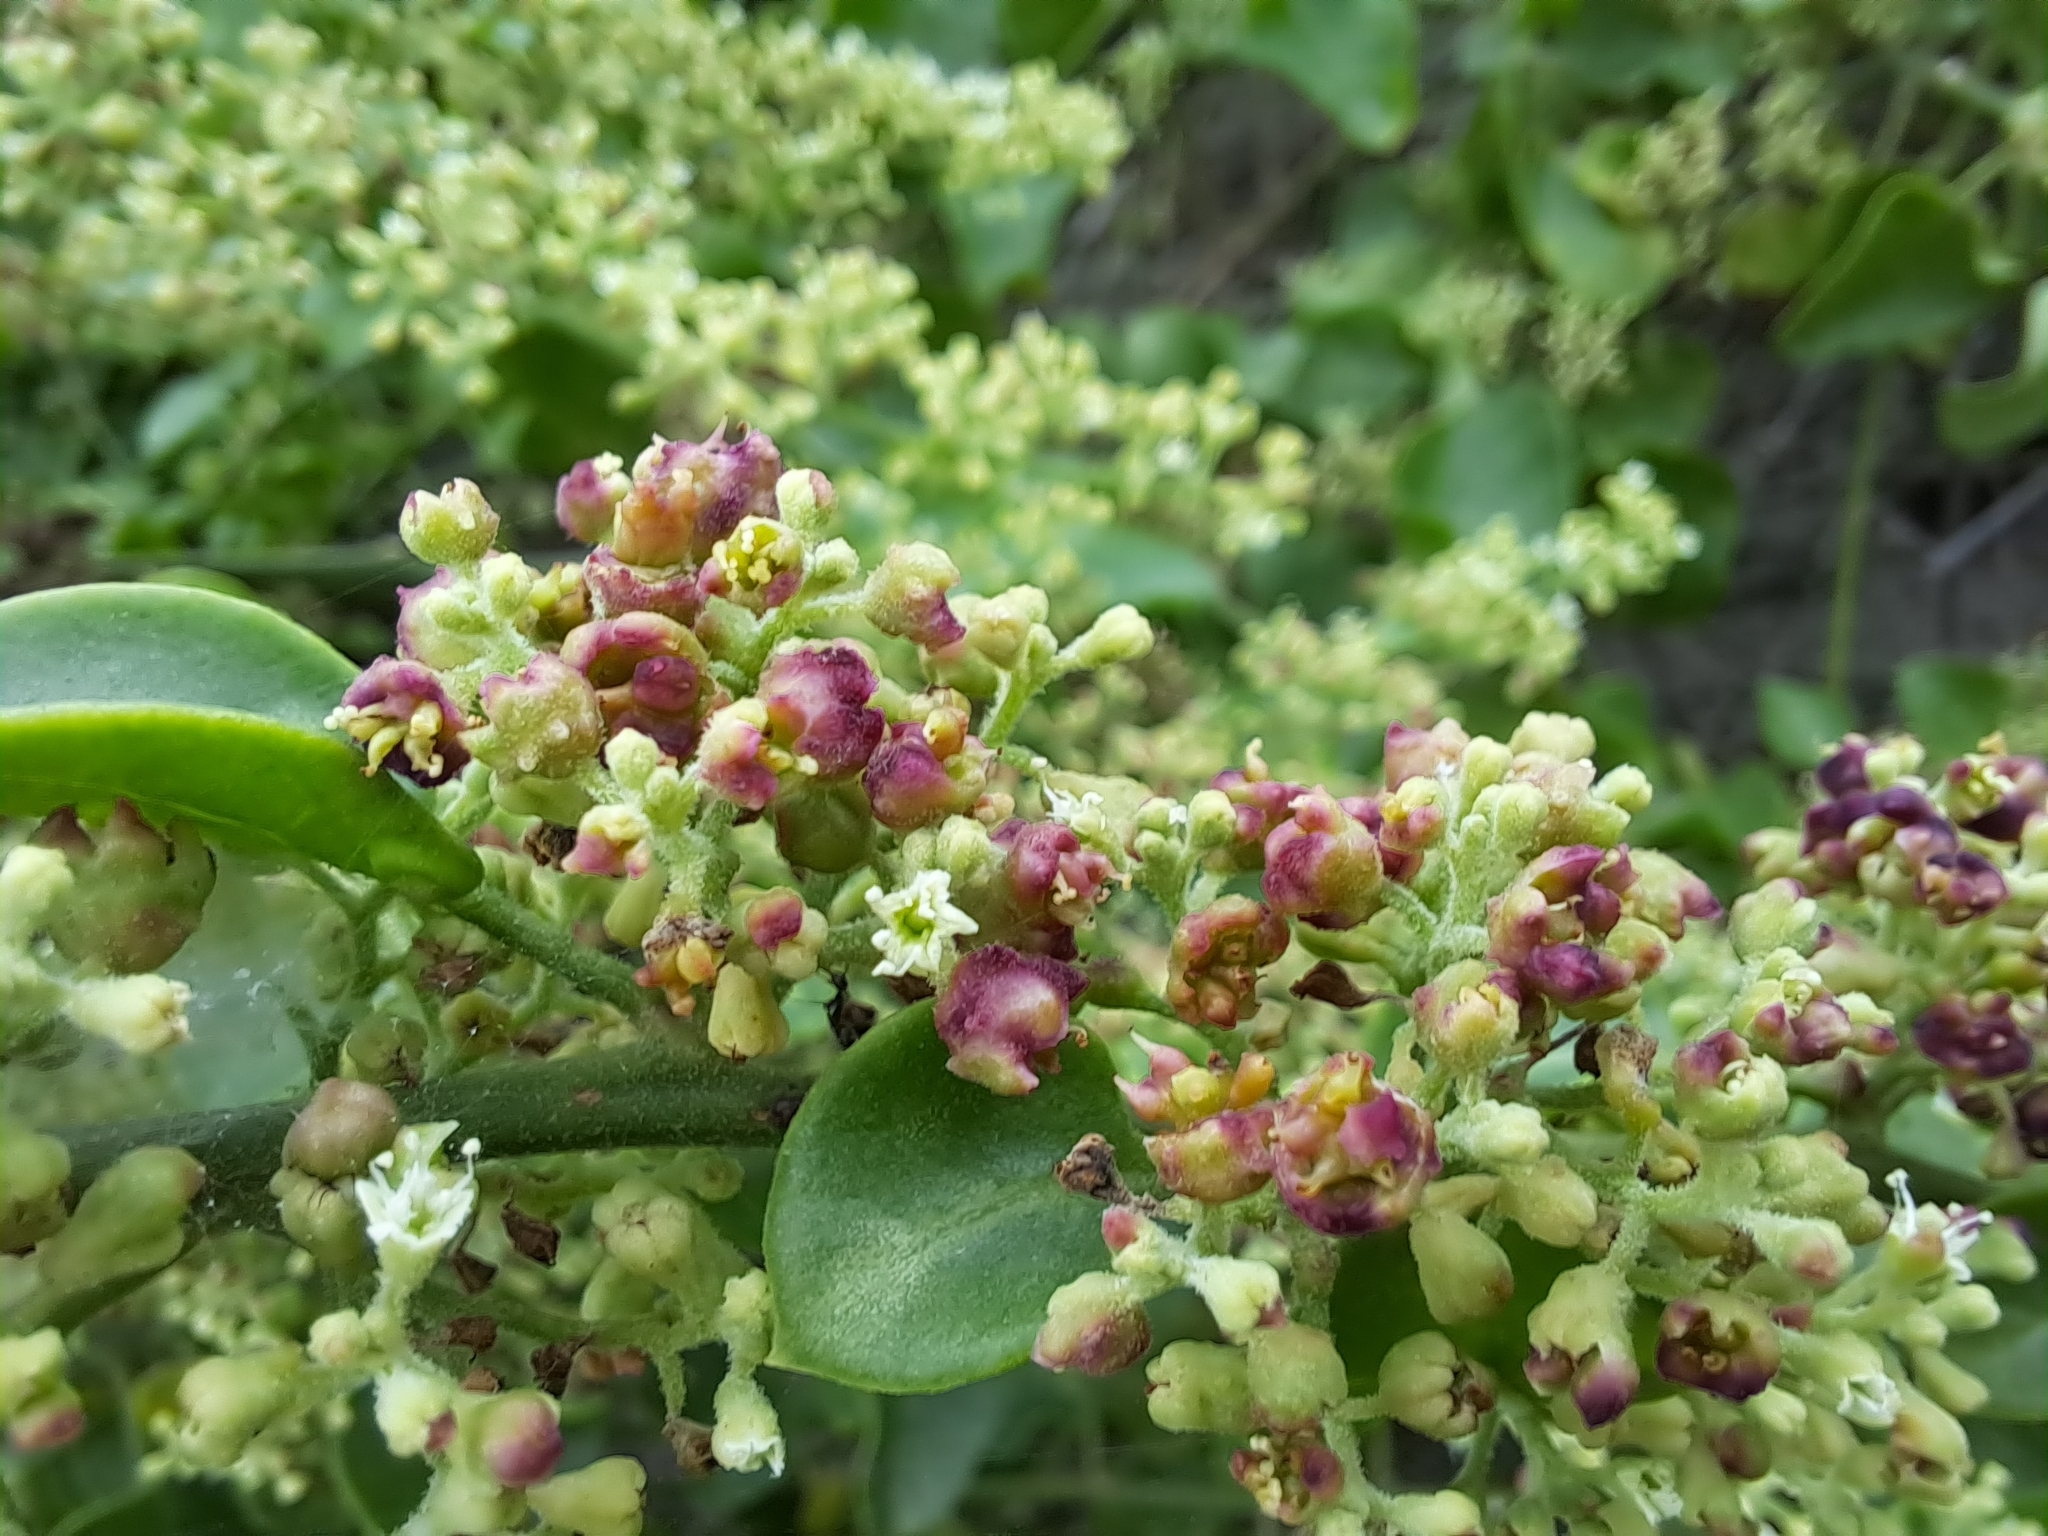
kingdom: Plantae
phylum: Tracheophyta
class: Magnoliopsida
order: Caryophyllales
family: Nyctaginaceae
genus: Cryptocarpus
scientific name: Cryptocarpus pyriformis
